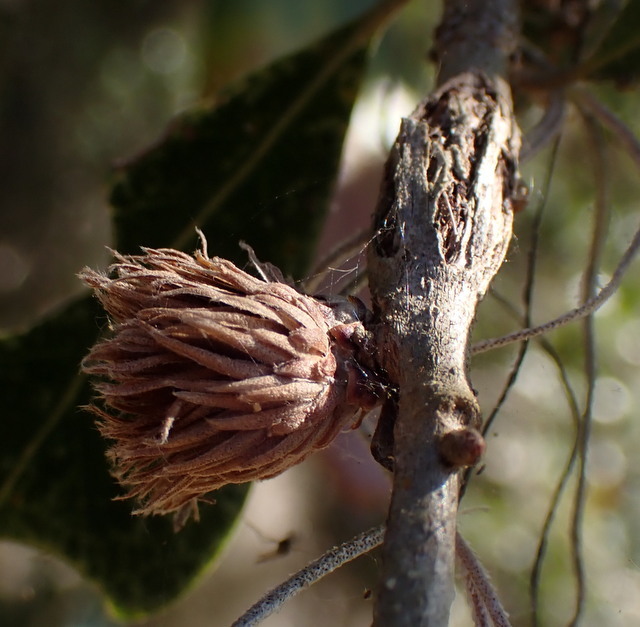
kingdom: Animalia
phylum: Arthropoda
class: Insecta
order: Hymenoptera
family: Cynipidae
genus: Andricus
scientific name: Andricus quercusfoliatus
